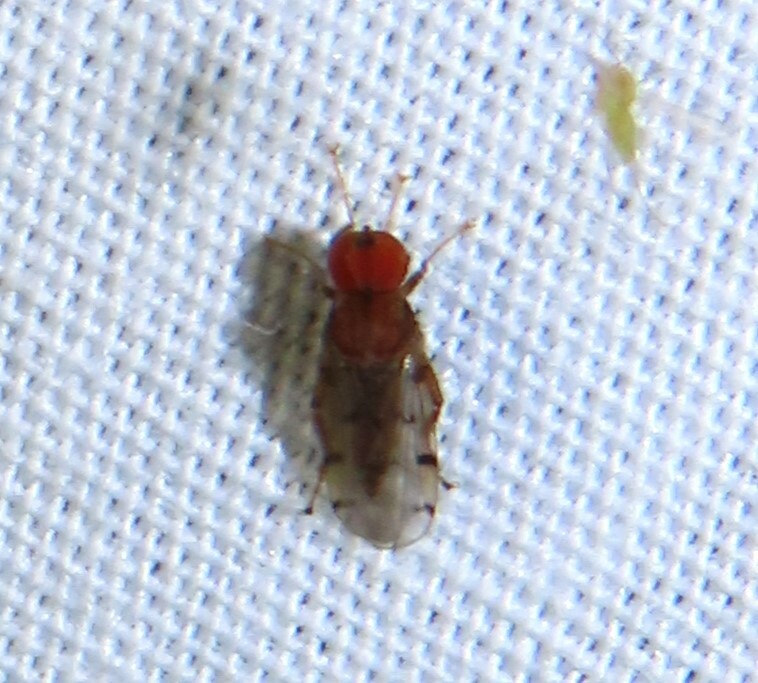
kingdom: Animalia
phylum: Arthropoda
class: Insecta
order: Diptera
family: Hybotidae
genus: Syneches
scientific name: Syneches simplex
